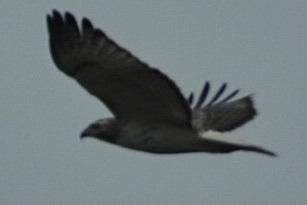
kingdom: Animalia
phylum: Chordata
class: Aves
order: Accipitriformes
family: Accipitridae
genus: Buteo
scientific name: Buteo jamaicensis
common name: Red-tailed hawk
